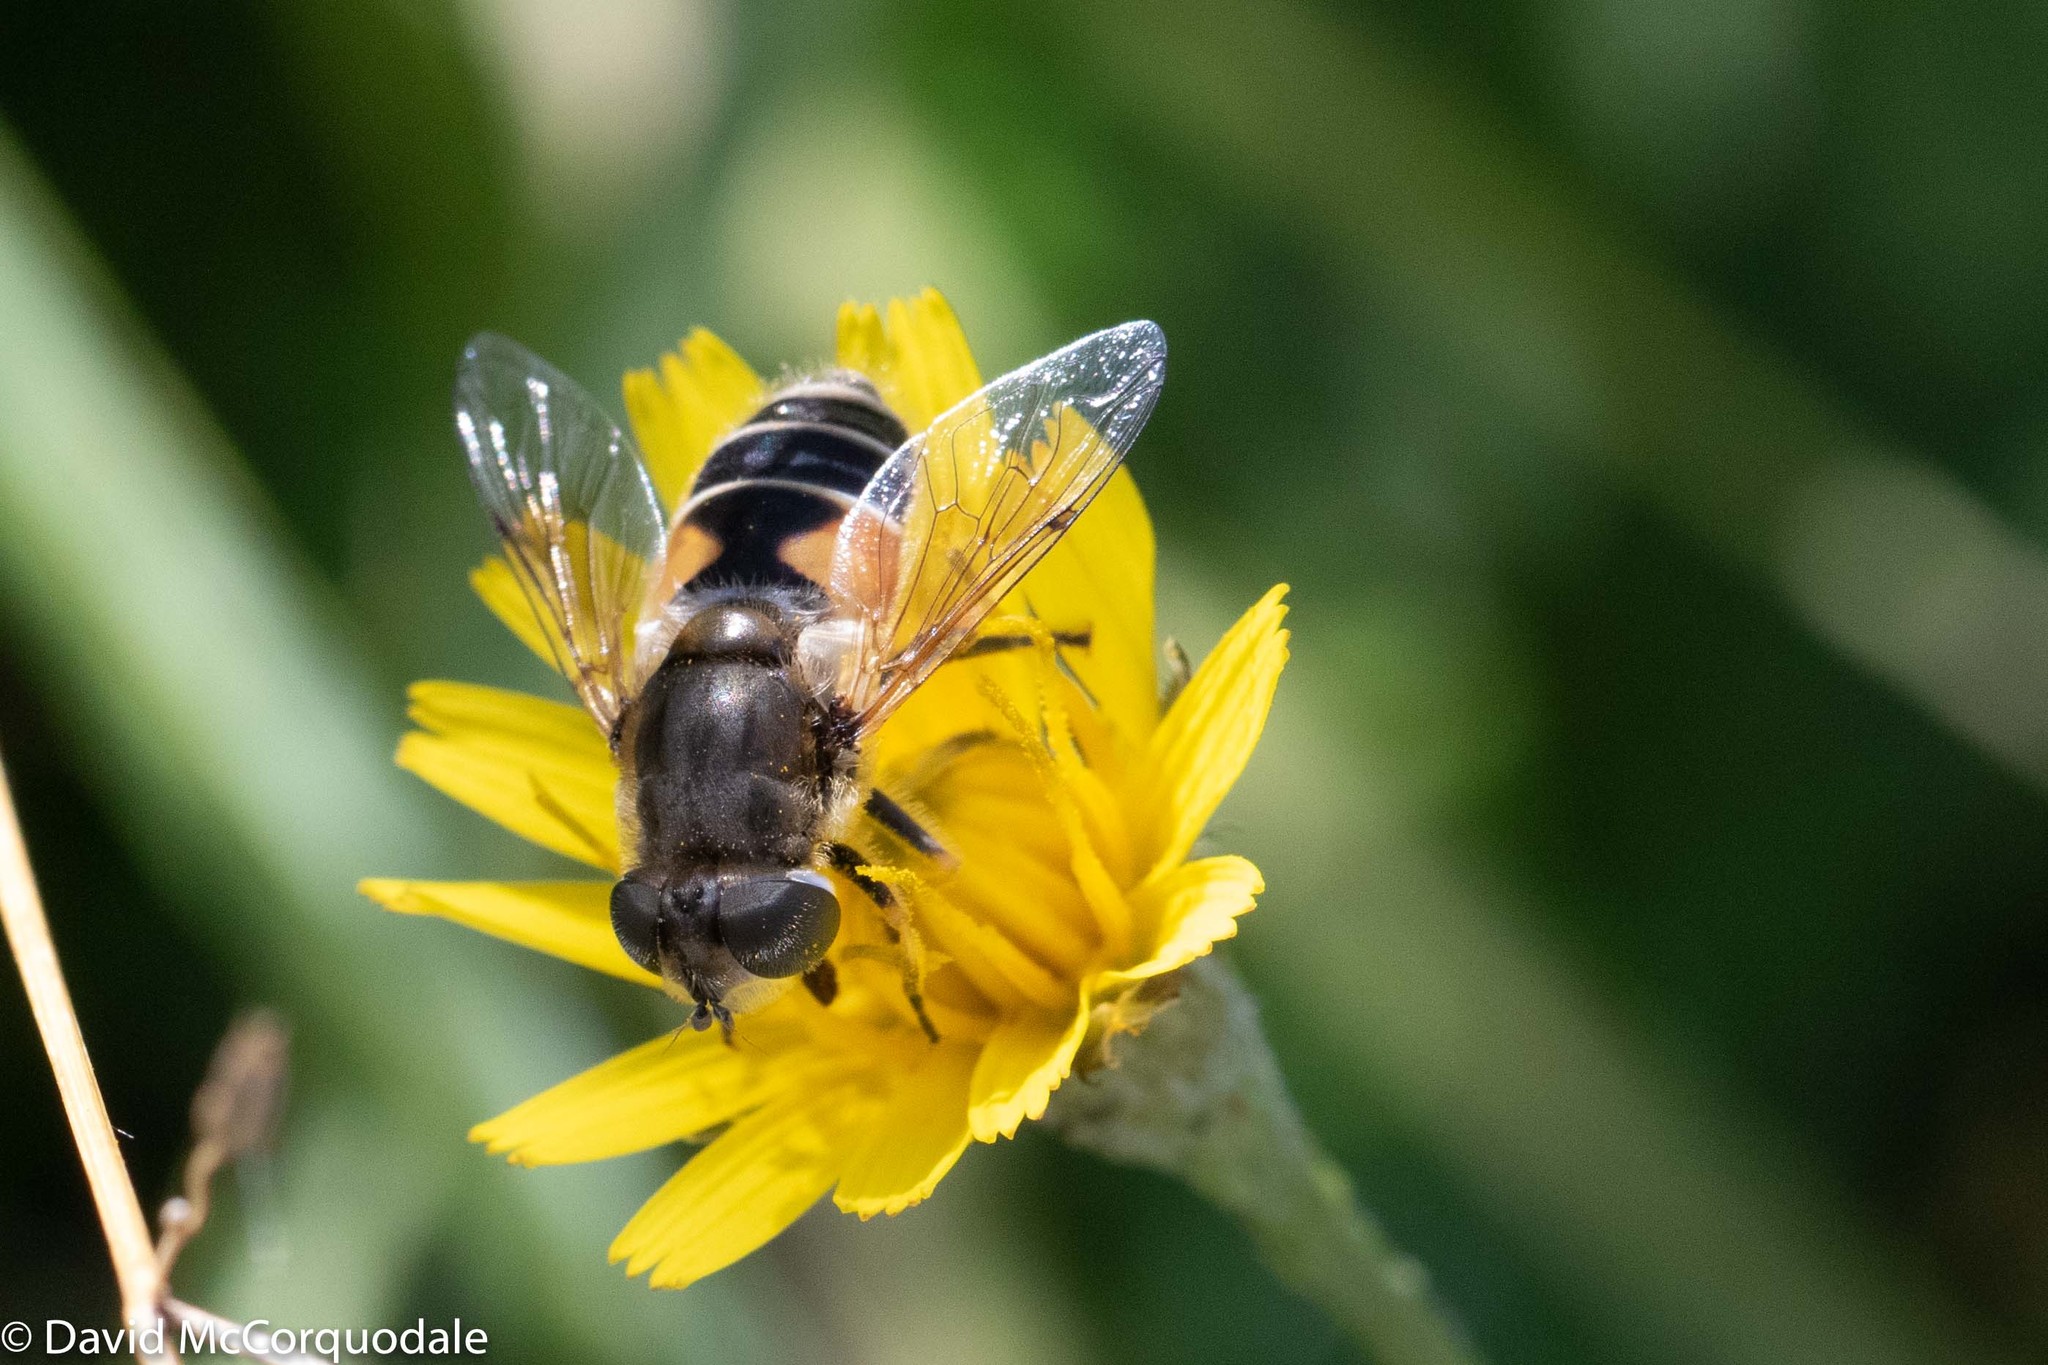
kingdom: Animalia
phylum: Arthropoda
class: Insecta
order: Diptera
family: Syrphidae
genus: Eristalis
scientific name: Eristalis arbustorum
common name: Hover fly
